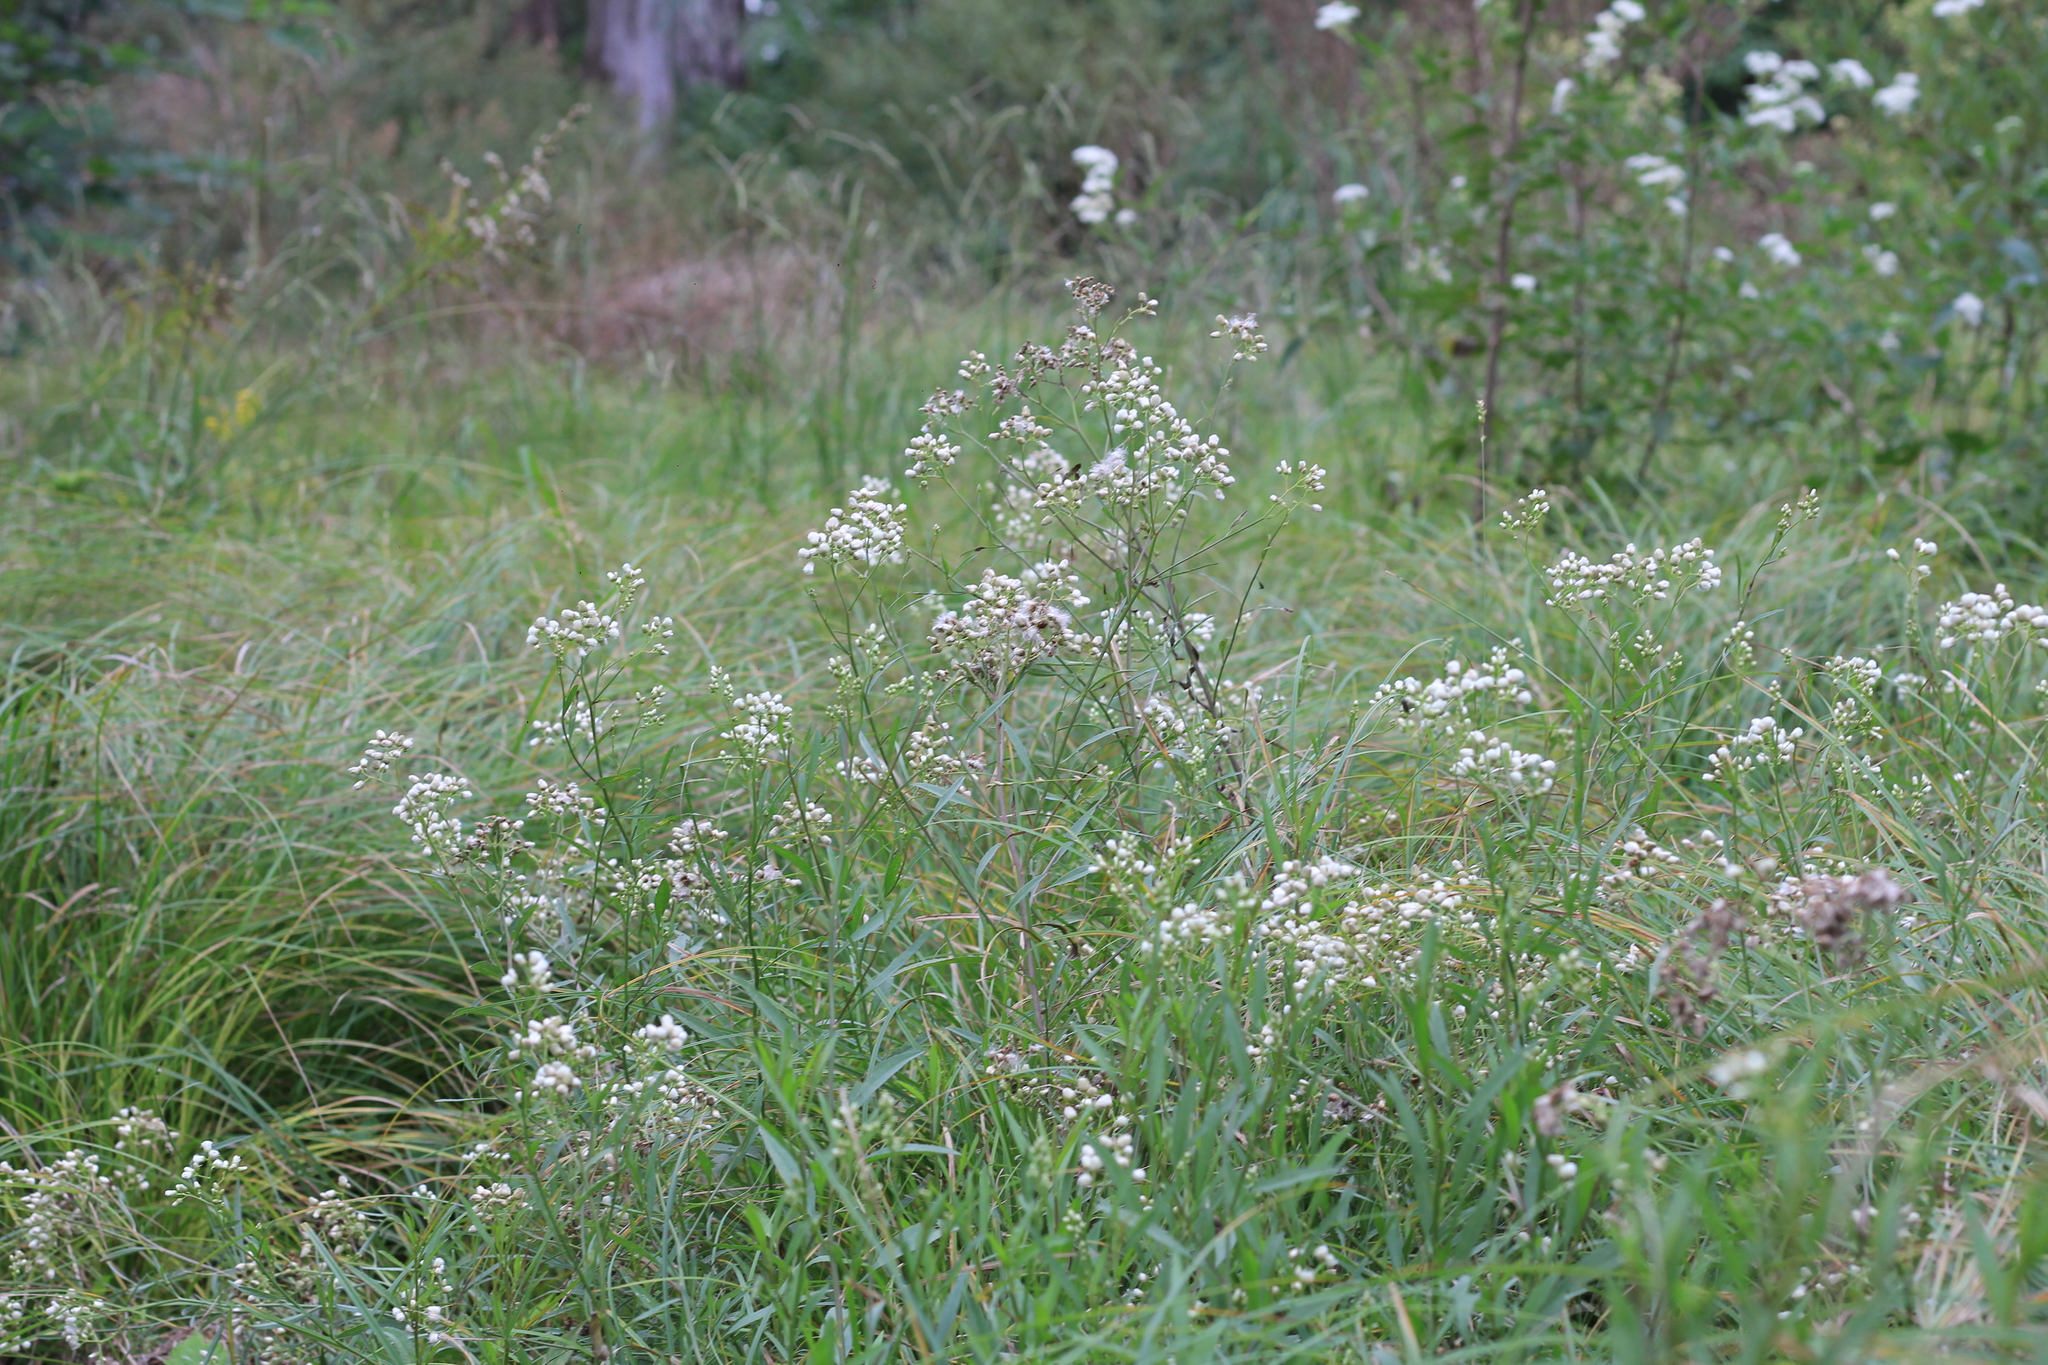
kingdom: Plantae
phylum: Tracheophyta
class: Magnoliopsida
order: Asterales
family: Asteraceae
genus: Baccharis
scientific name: Baccharis glutinosa
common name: Saltmarsh baccharis
